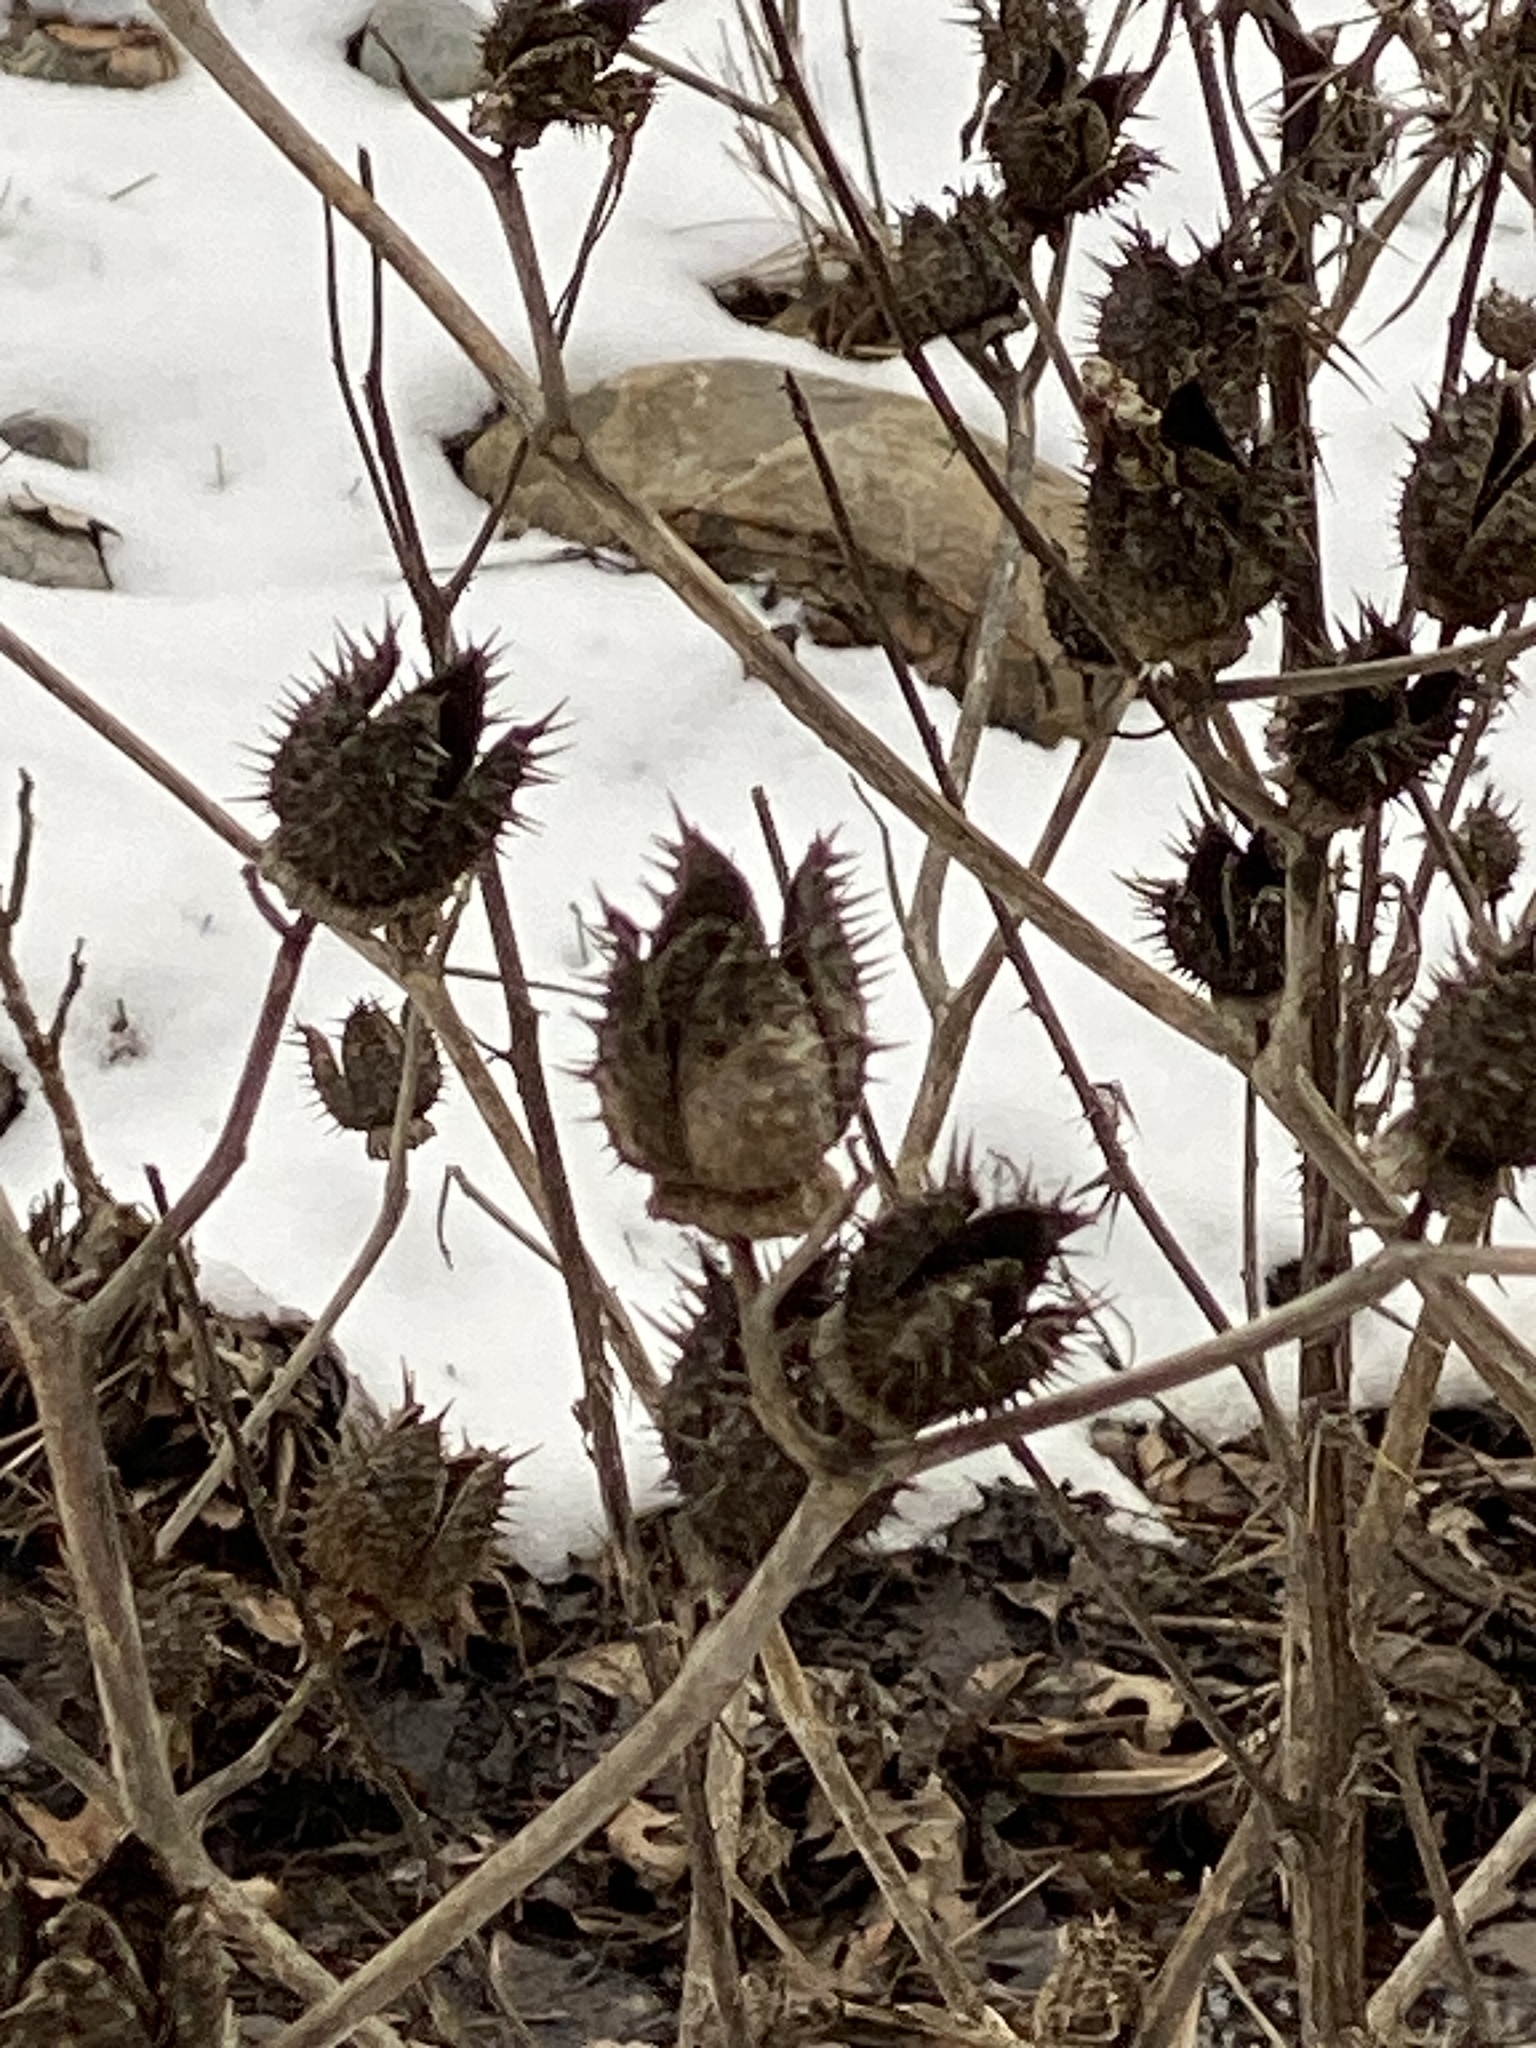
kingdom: Plantae
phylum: Tracheophyta
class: Magnoliopsida
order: Solanales
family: Solanaceae
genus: Datura
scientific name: Datura stramonium
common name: Thorn-apple
